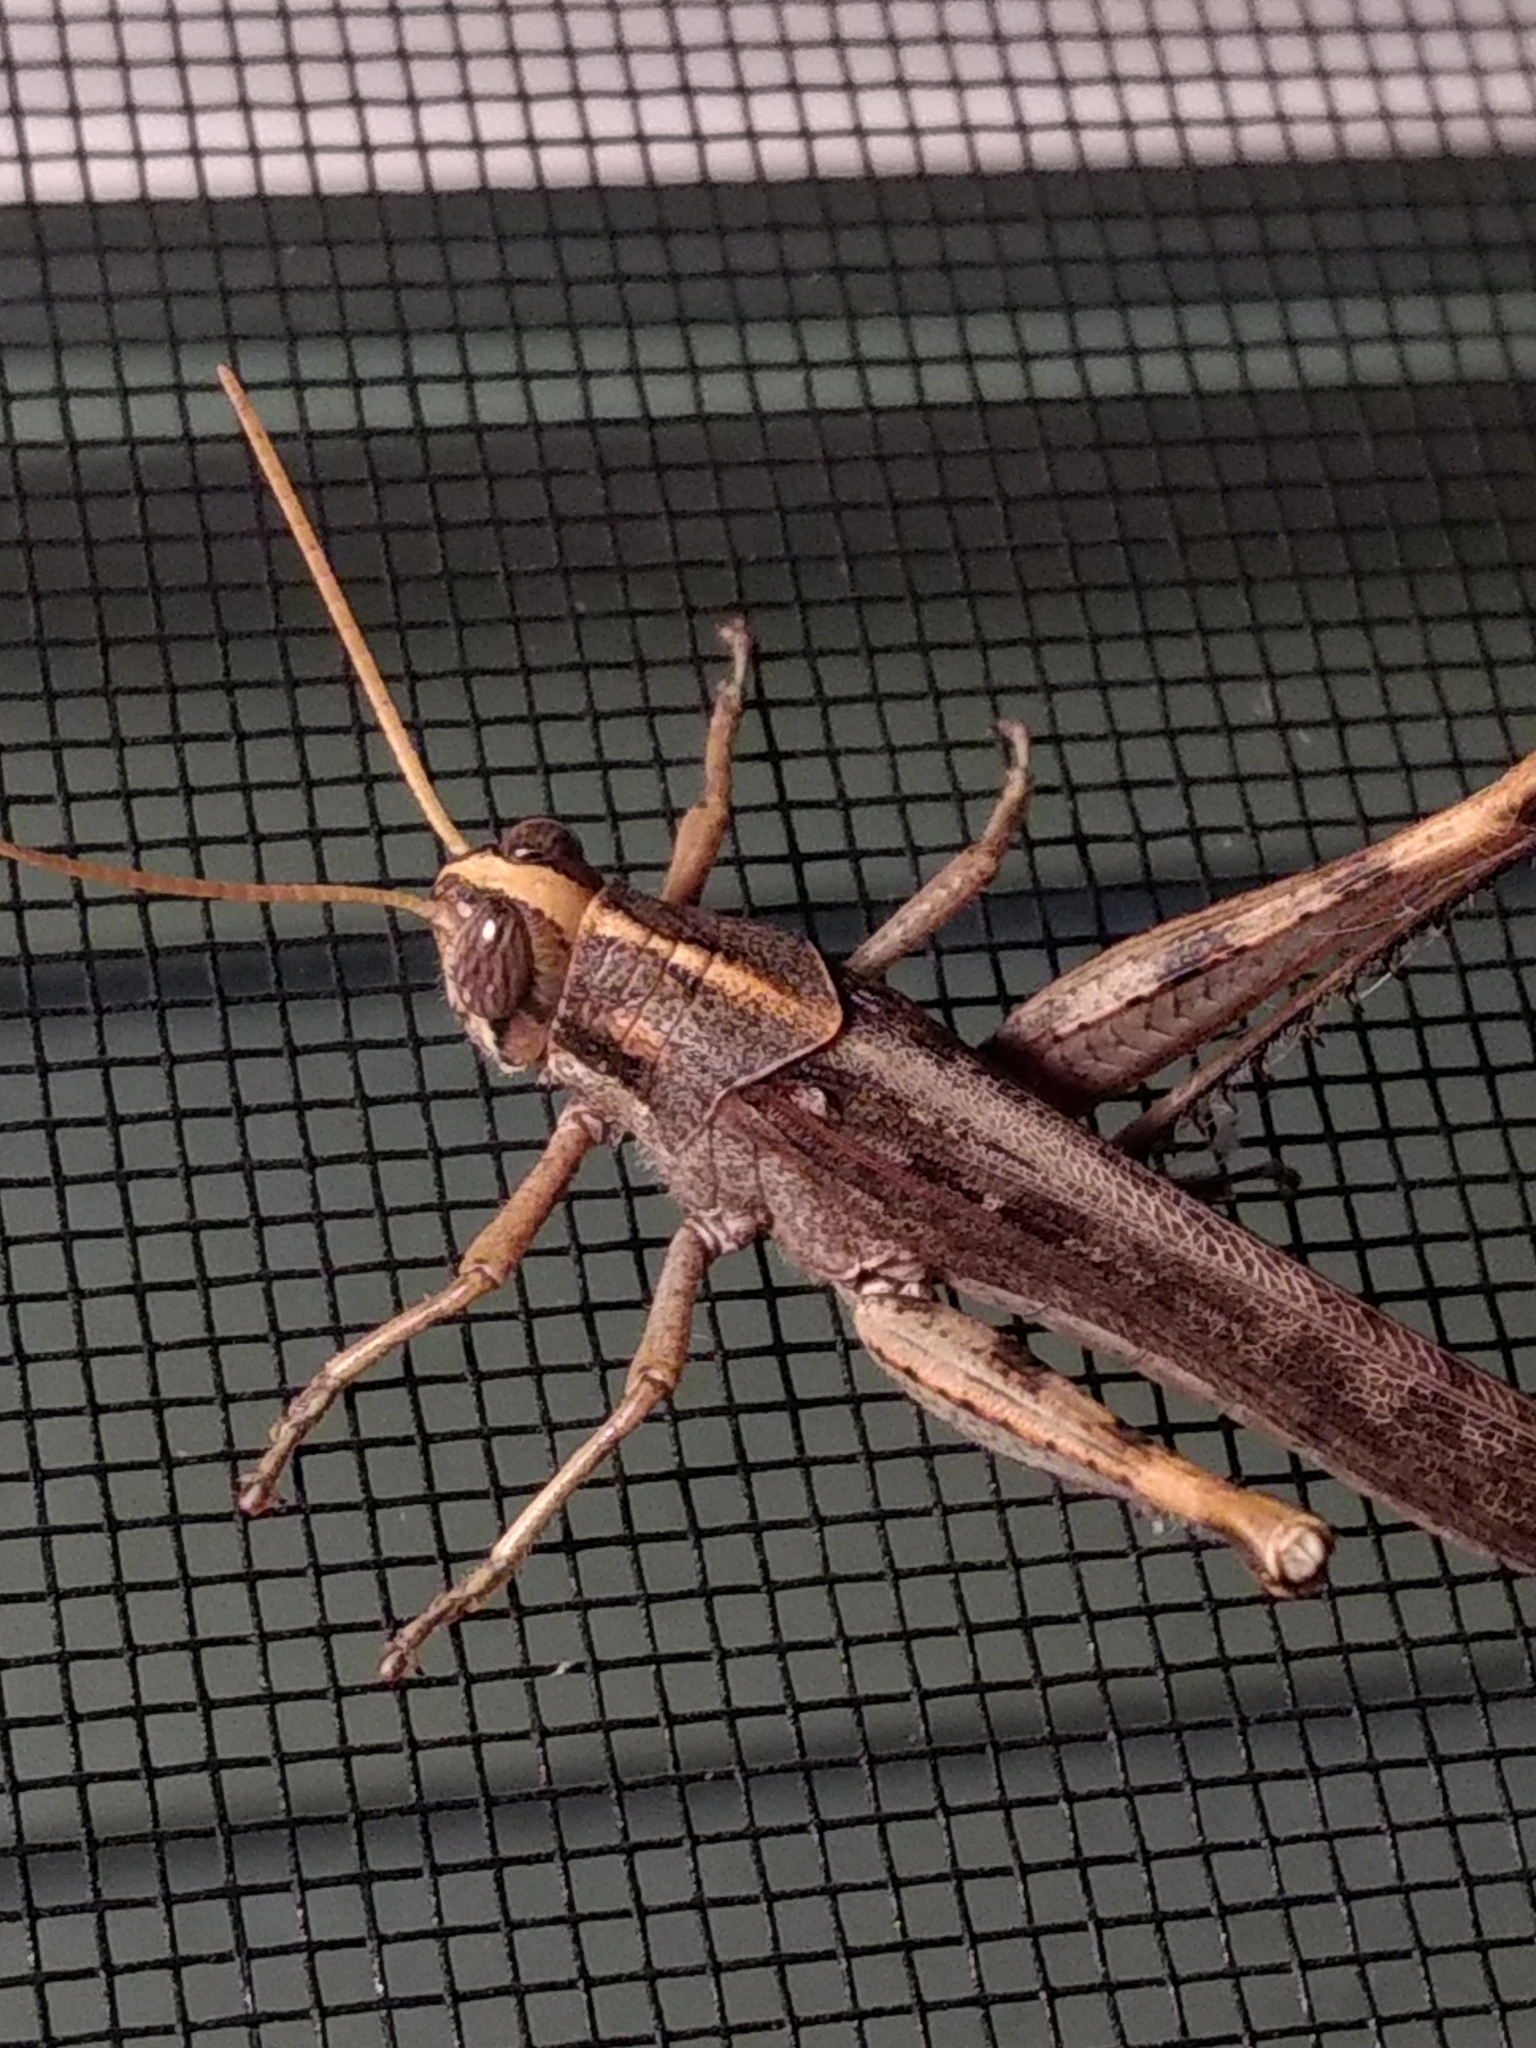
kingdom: Animalia
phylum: Arthropoda
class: Insecta
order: Orthoptera
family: Acrididae
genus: Schistocerca
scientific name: Schistocerca nitens
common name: Vagrant grasshopper
